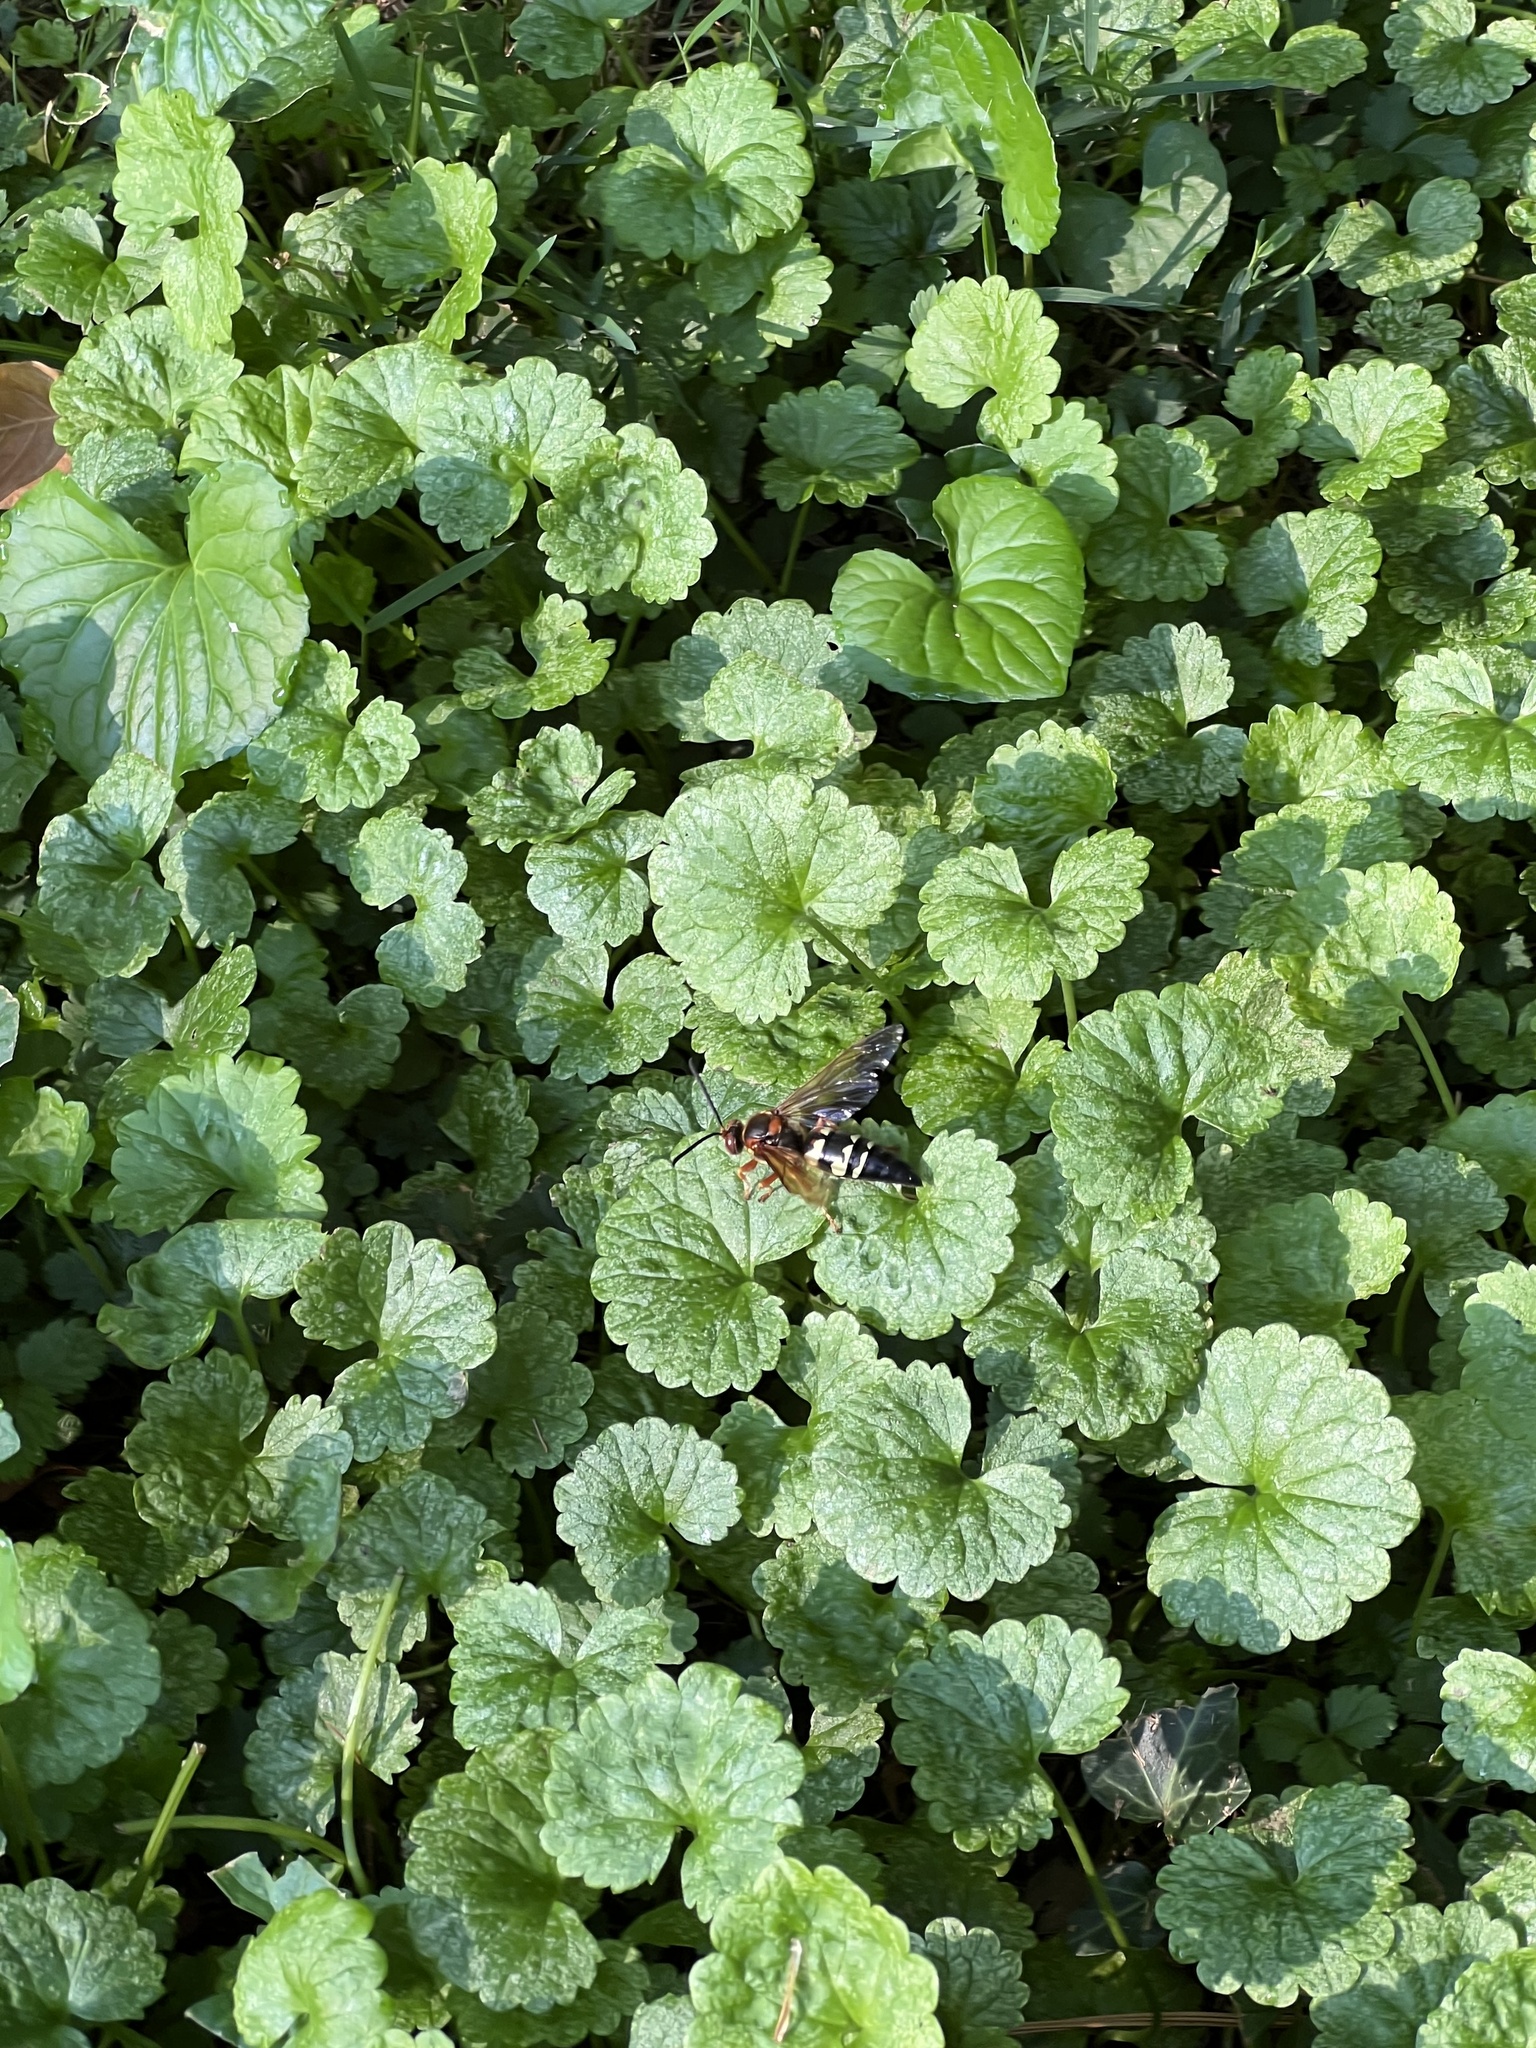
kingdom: Animalia
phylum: Arthropoda
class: Insecta
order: Hymenoptera
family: Crabronidae
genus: Sphecius
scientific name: Sphecius speciosus
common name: Cicada killer
